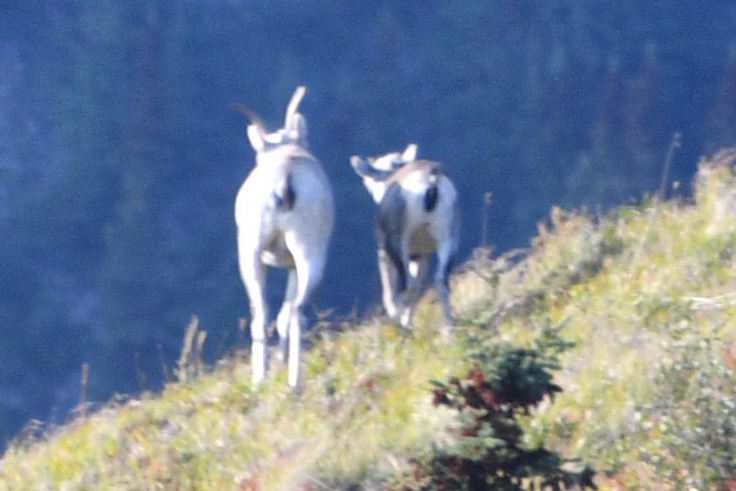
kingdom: Animalia
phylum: Chordata
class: Mammalia
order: Artiodactyla
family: Bovidae
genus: Ovis
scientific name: Ovis dalli
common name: Dall's sheep
